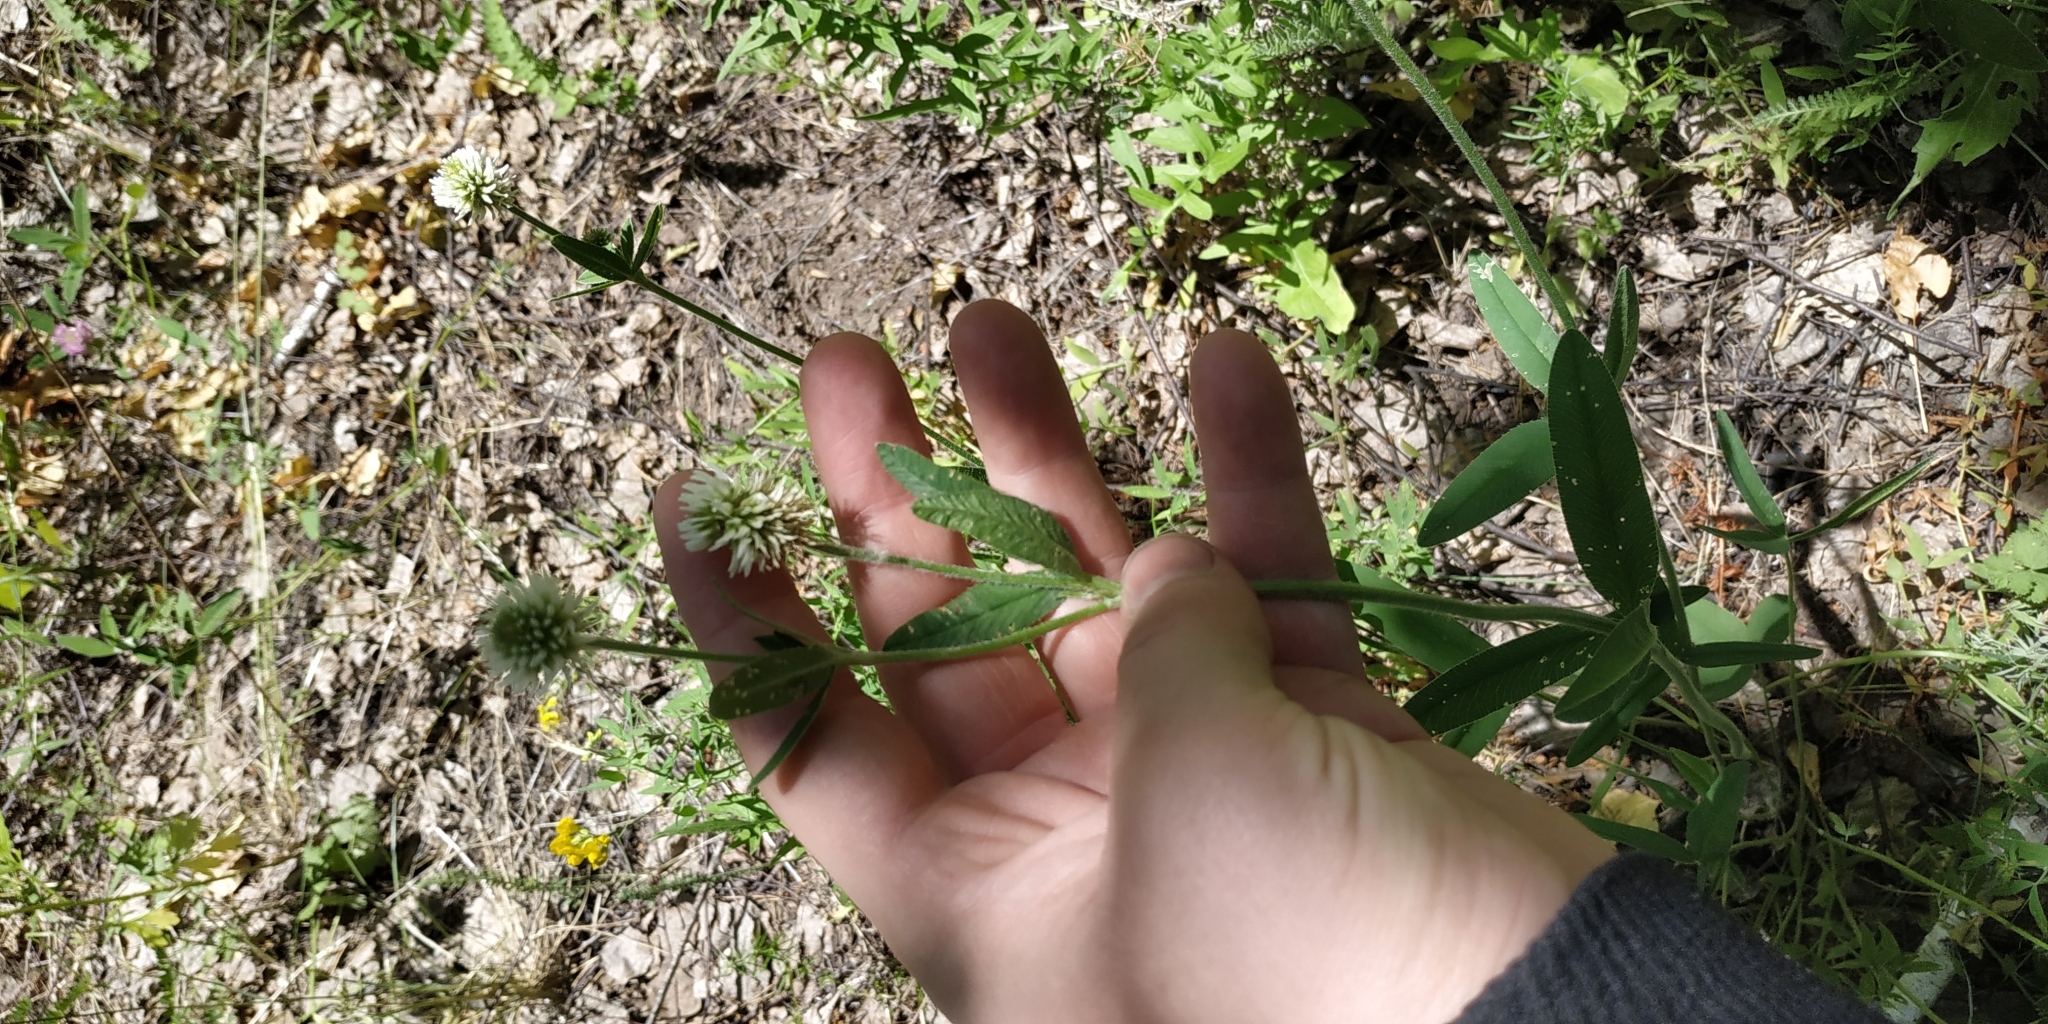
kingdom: Plantae
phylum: Tracheophyta
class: Magnoliopsida
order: Fabales
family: Fabaceae
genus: Trifolium
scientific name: Trifolium montanum
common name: Mountain clover
